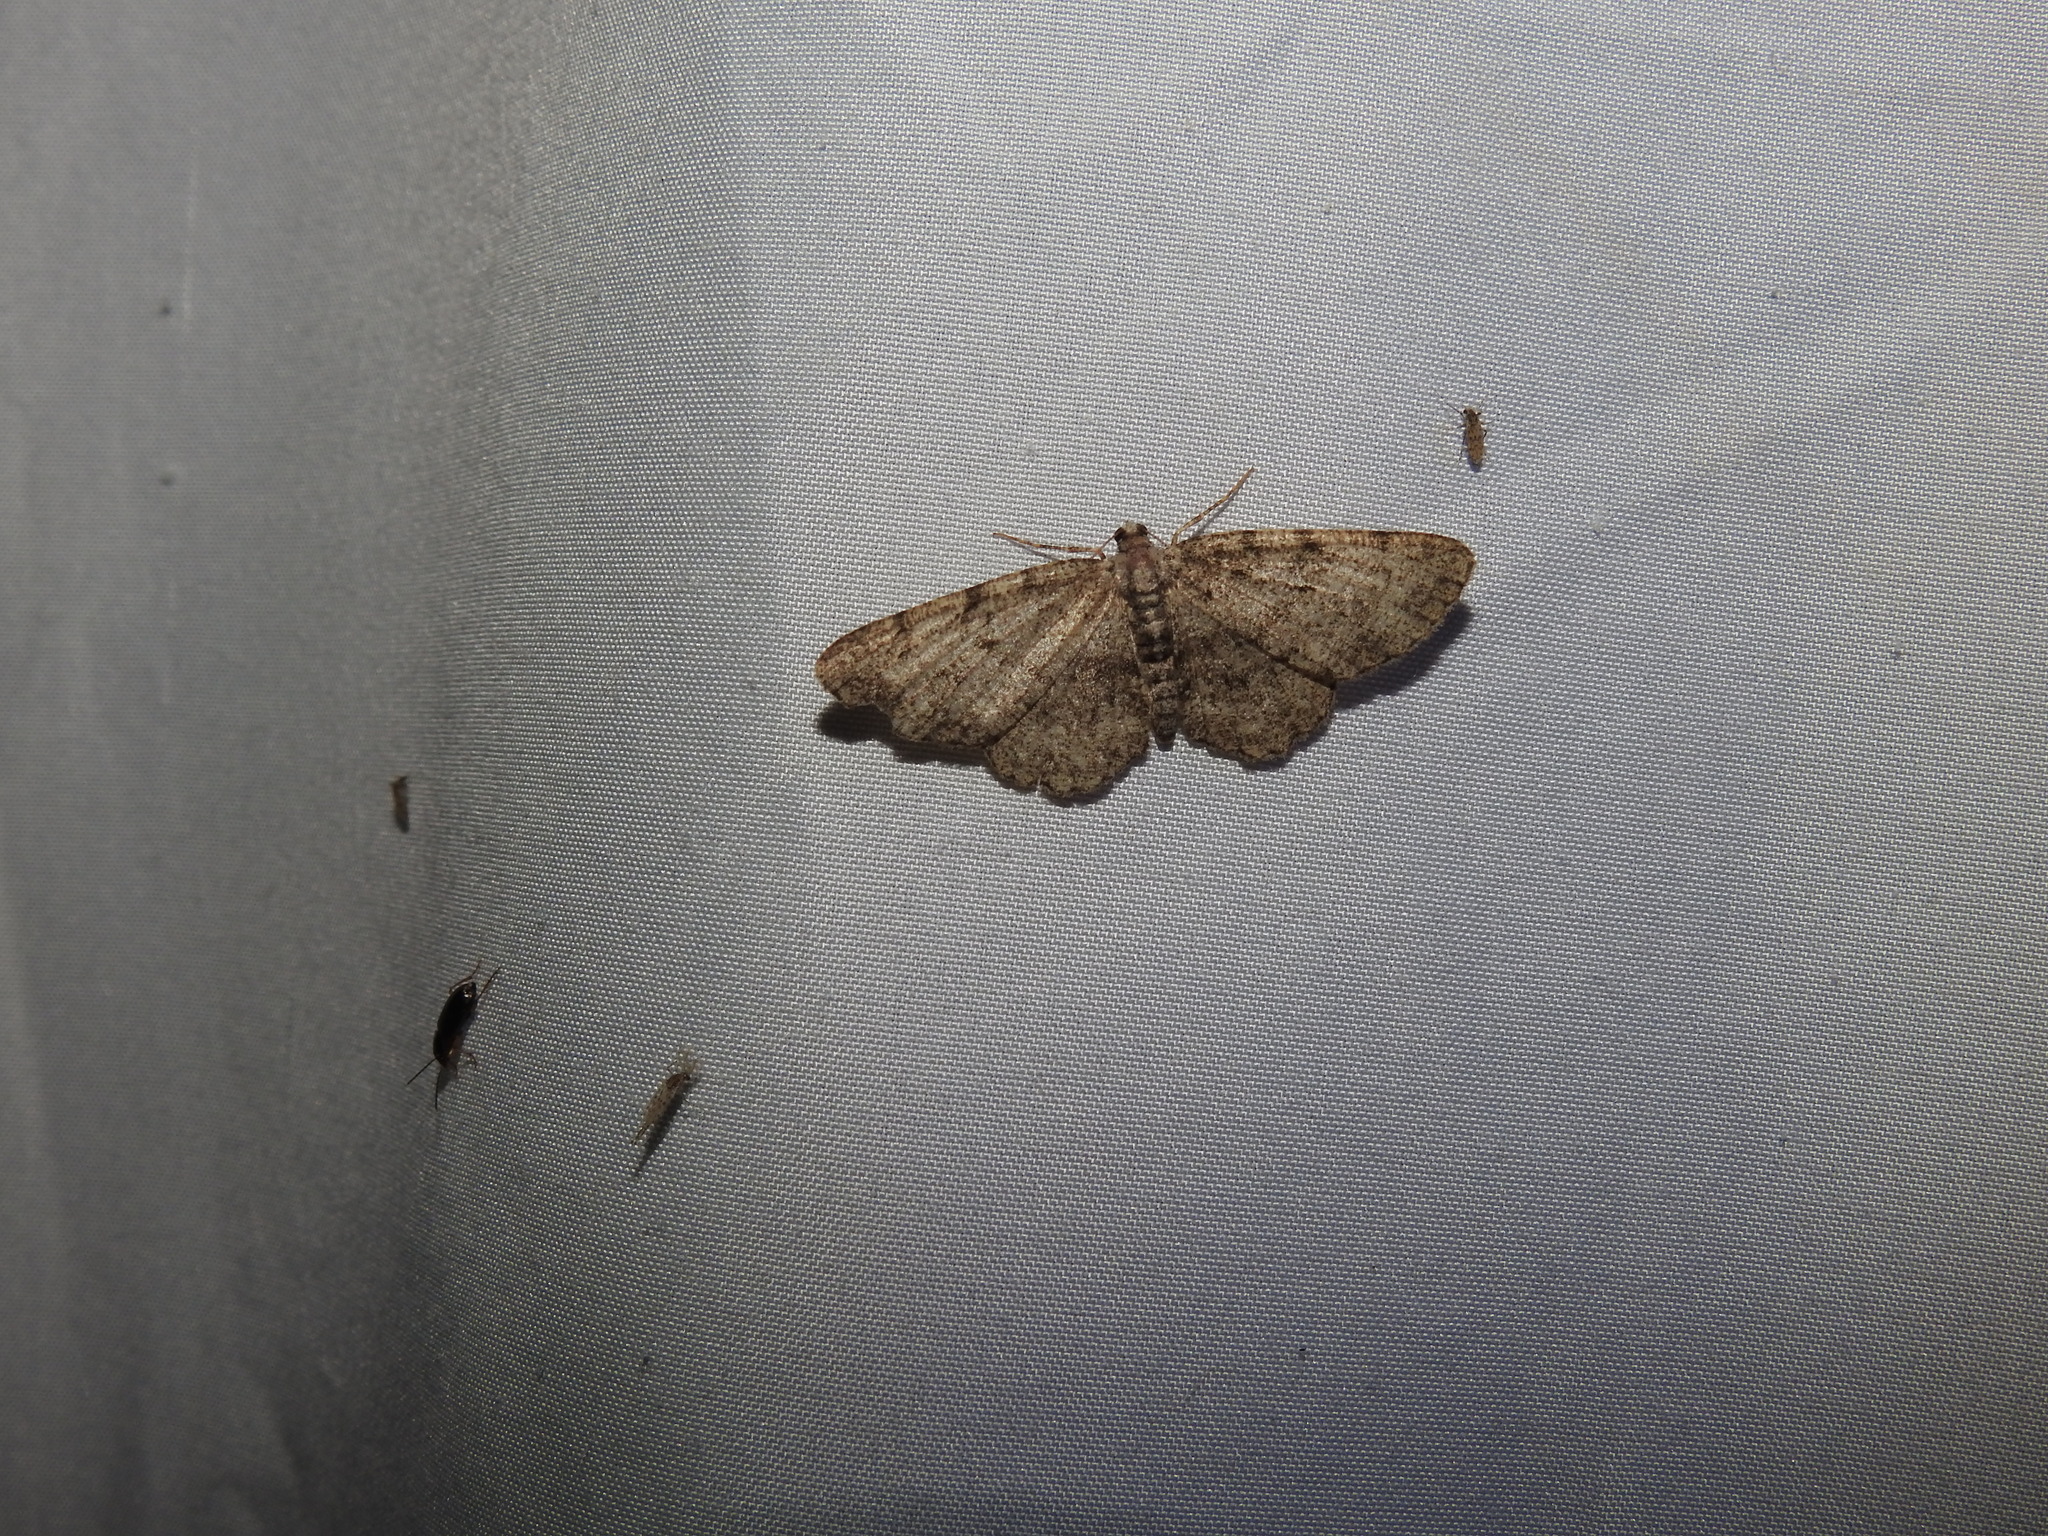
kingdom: Animalia
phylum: Arthropoda
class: Insecta
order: Lepidoptera
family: Geometridae
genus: Aethalura
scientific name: Aethalura intertexta
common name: Four-barred gray
